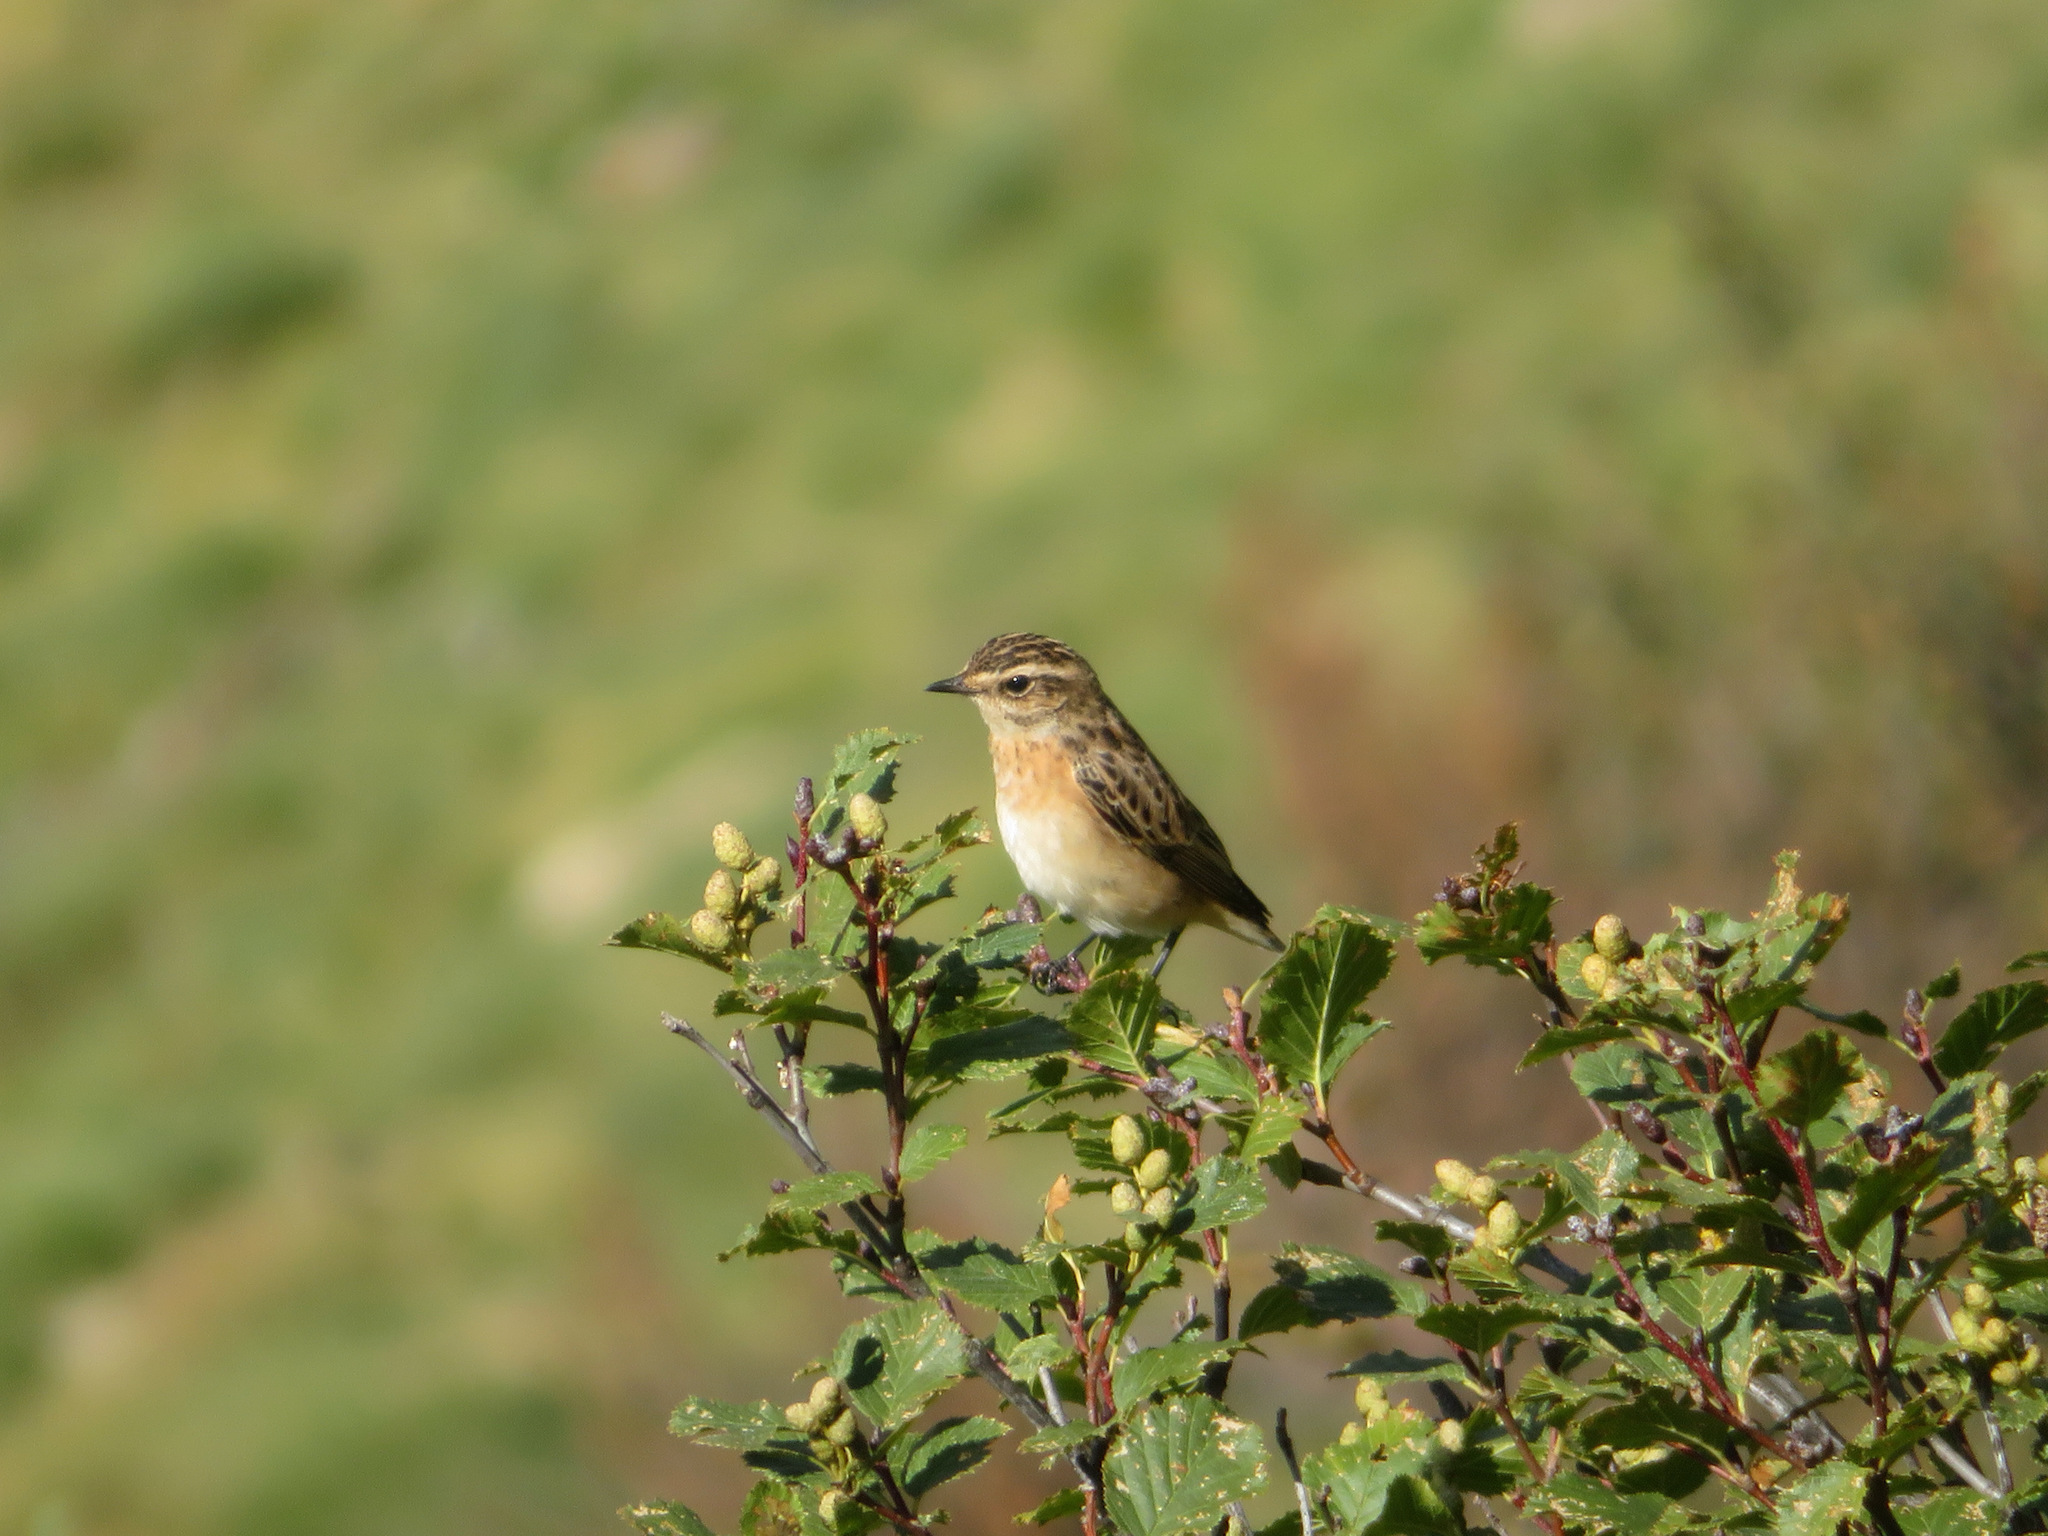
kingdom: Animalia
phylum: Chordata
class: Aves
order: Passeriformes
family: Muscicapidae
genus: Saxicola
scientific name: Saxicola rubetra
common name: Whinchat
